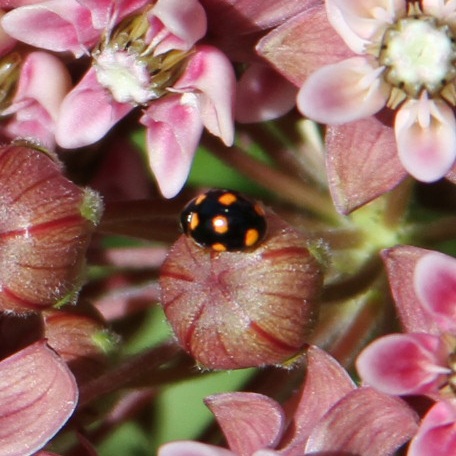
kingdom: Animalia
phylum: Arthropoda
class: Insecta
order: Coleoptera
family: Coccinellidae
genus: Brachiacantha
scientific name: Brachiacantha ursina
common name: Ursine spurleg lady beetle
